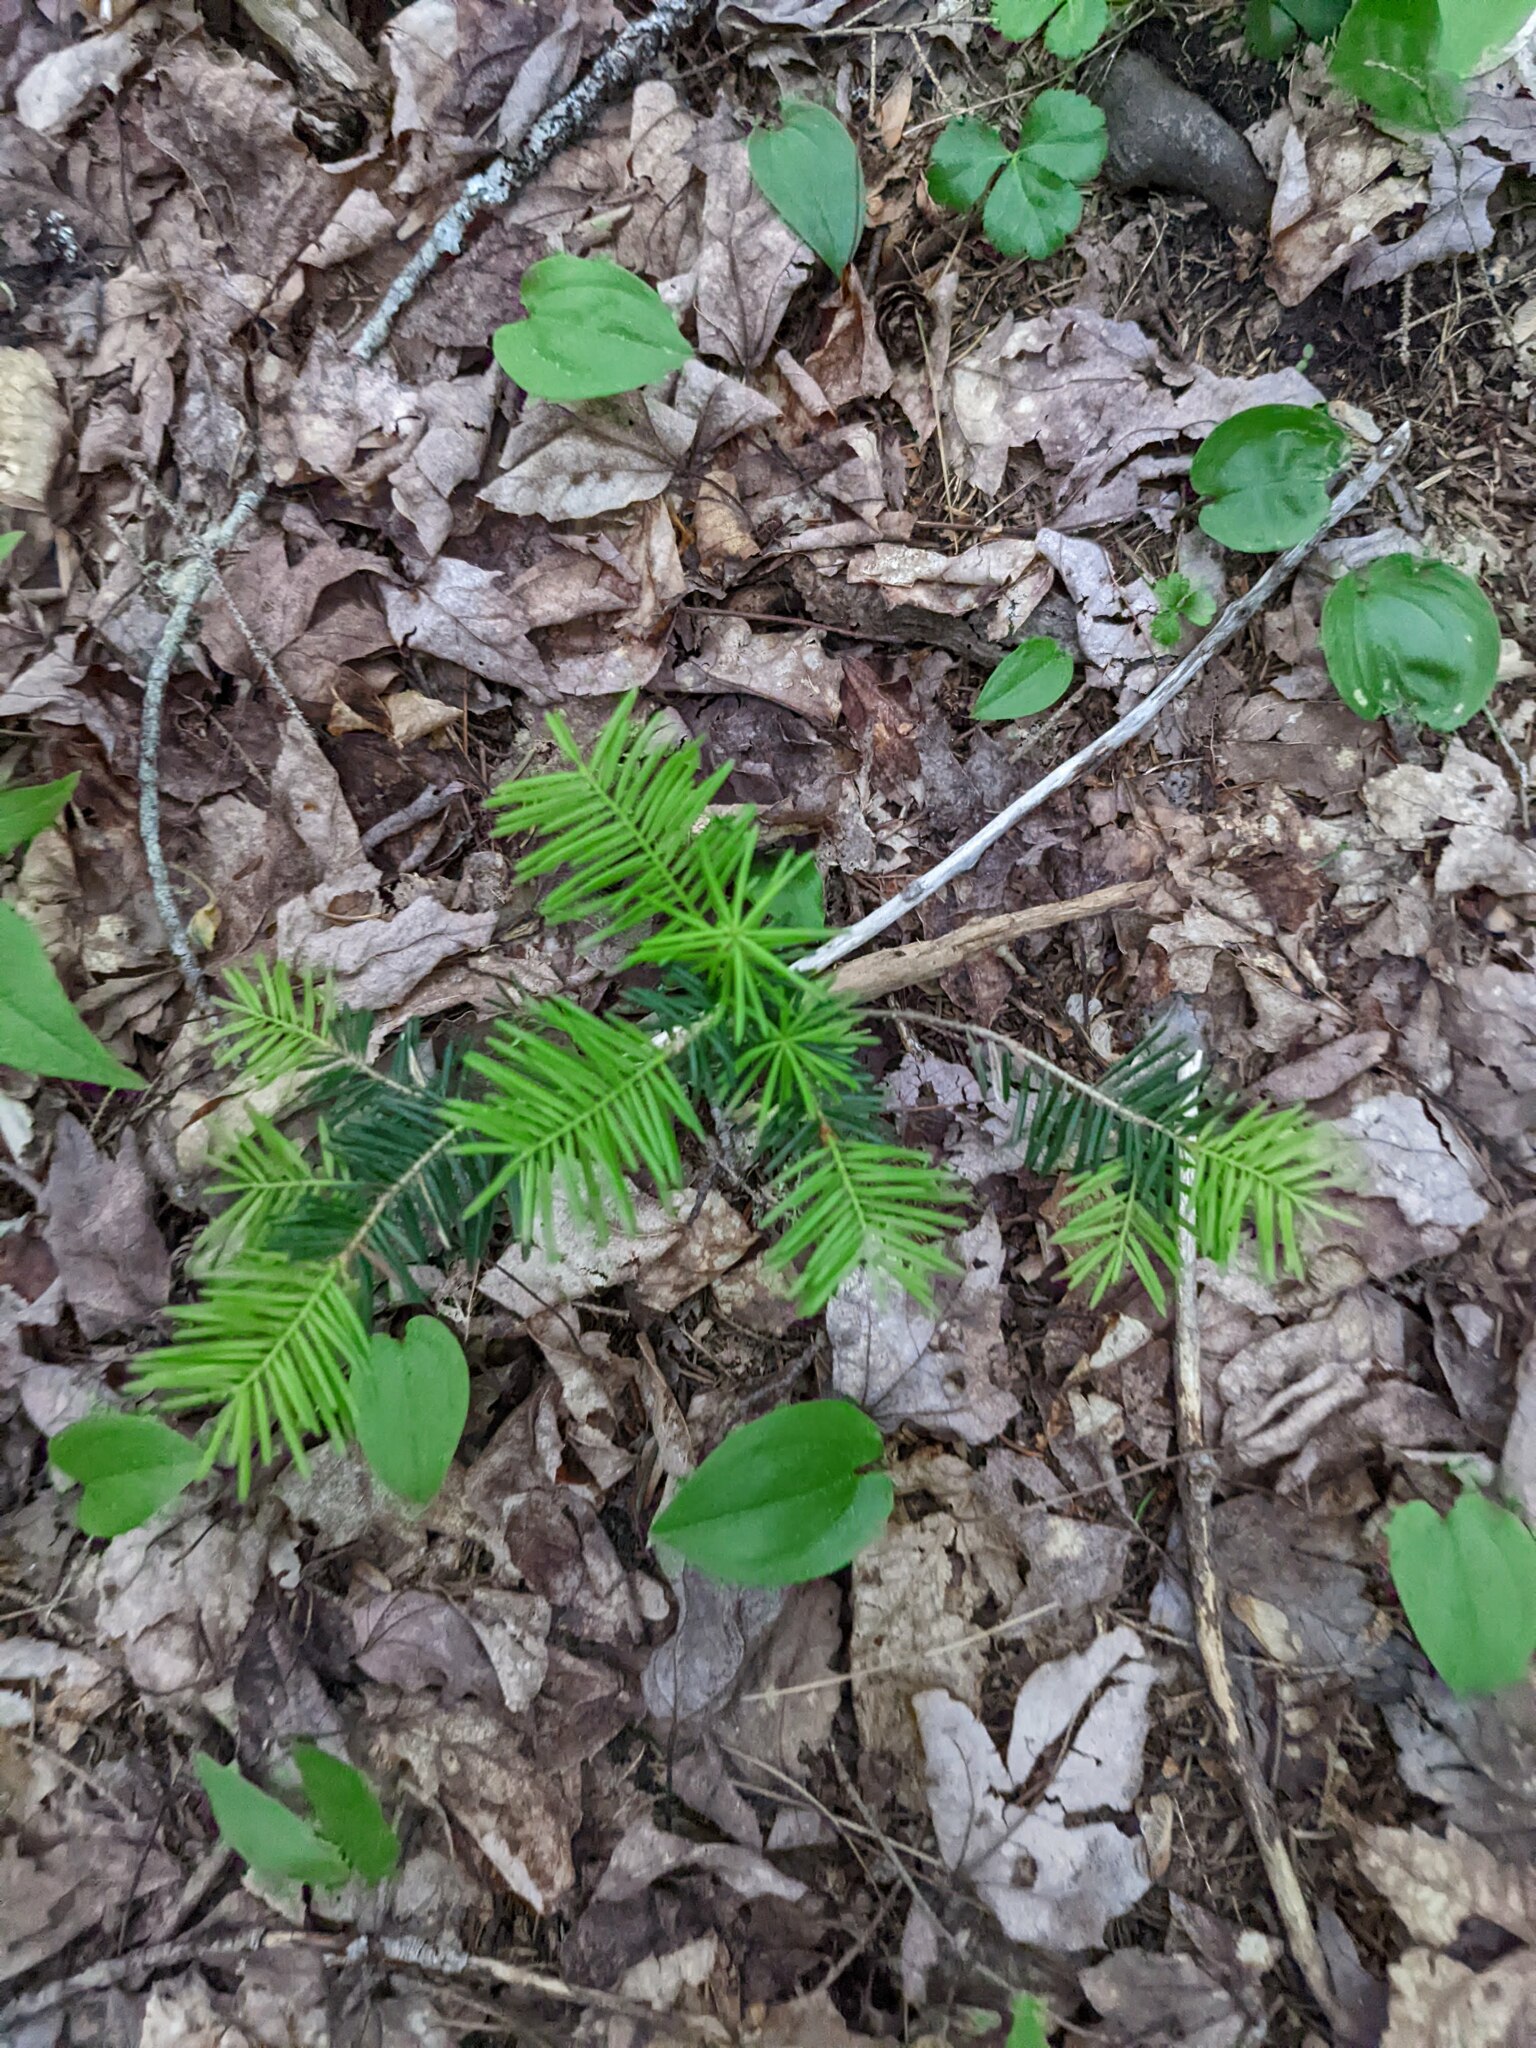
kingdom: Plantae
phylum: Tracheophyta
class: Liliopsida
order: Asparagales
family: Asparagaceae
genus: Maianthemum
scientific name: Maianthemum canadense
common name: False lily-of-the-valley
